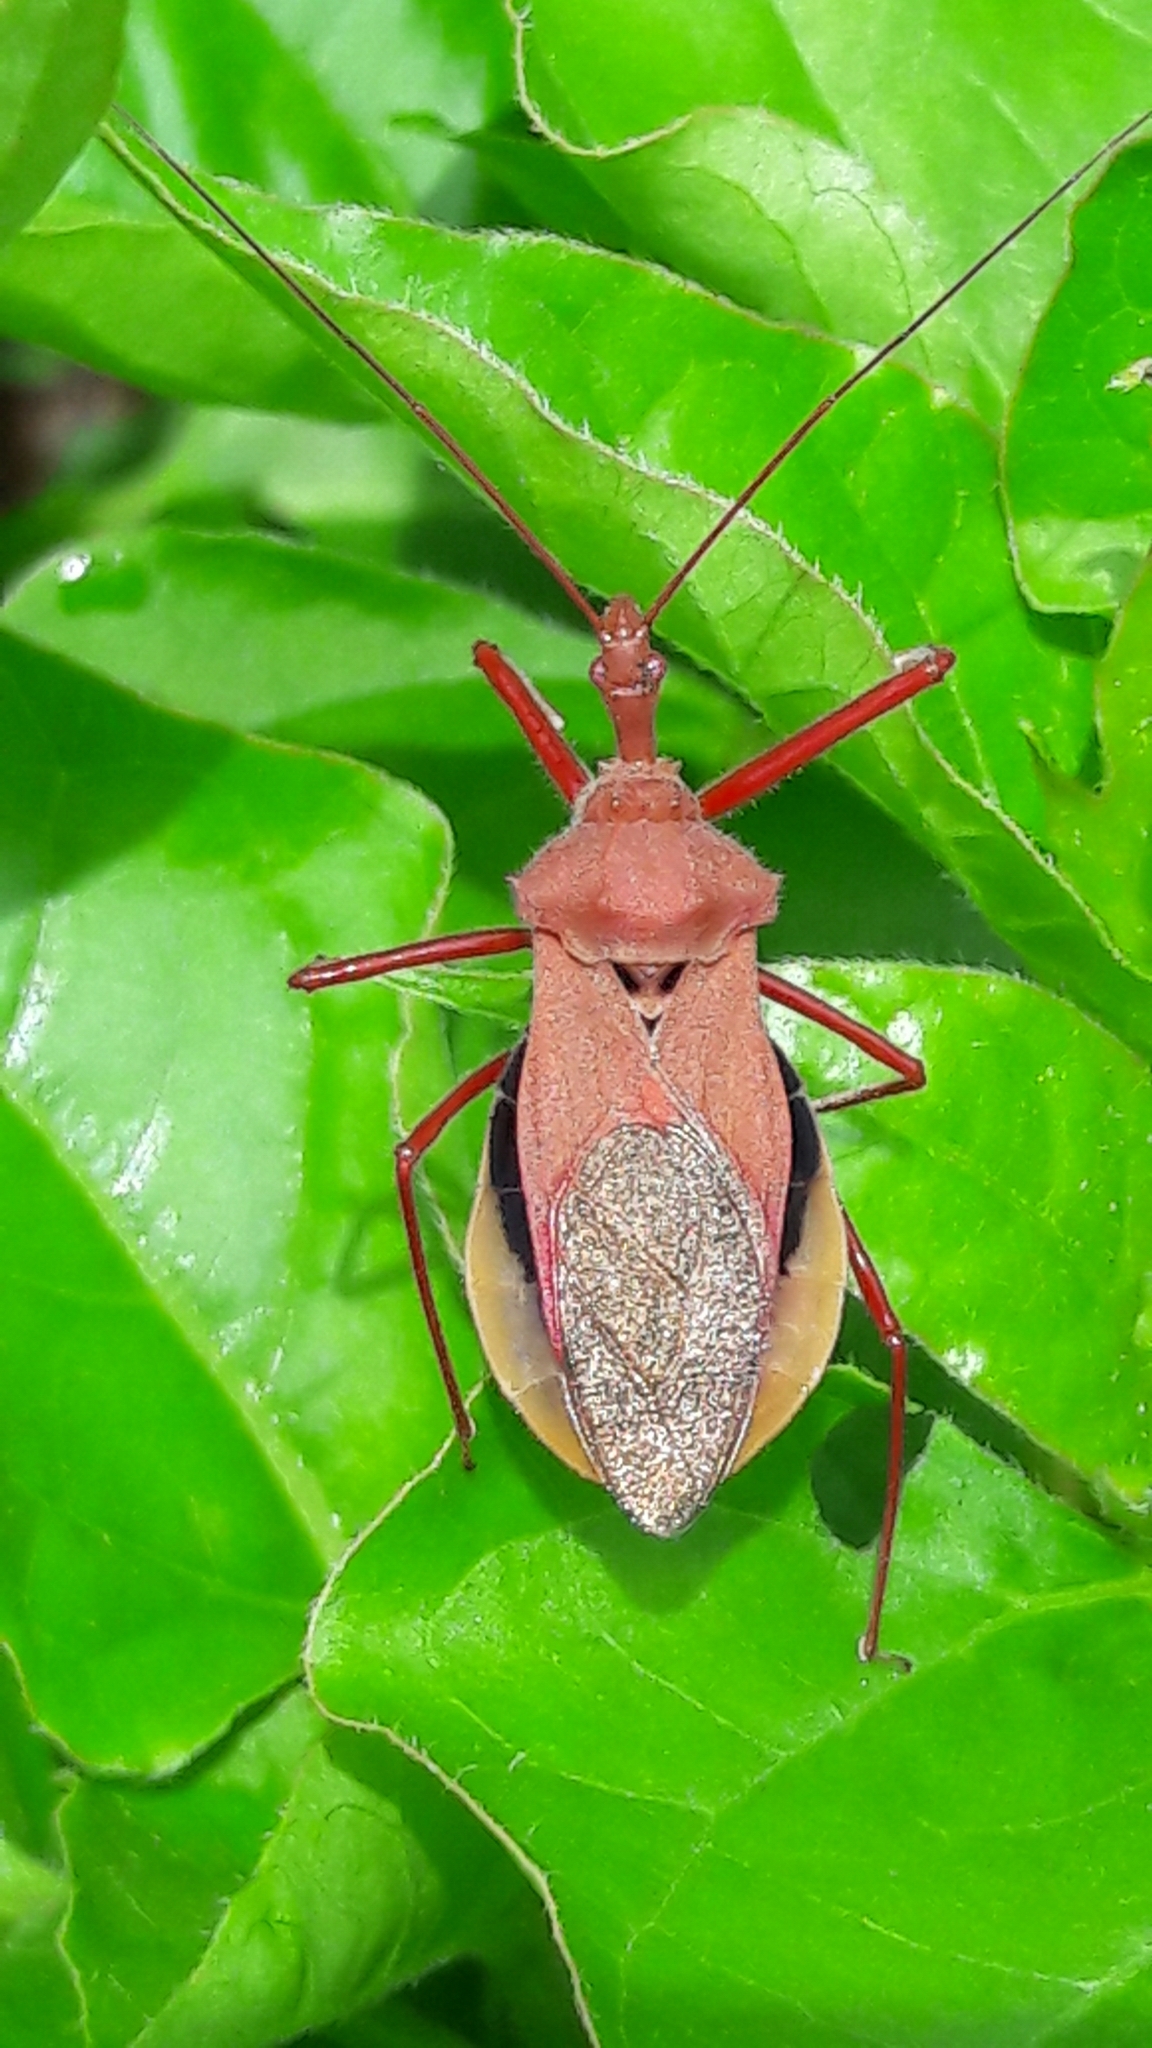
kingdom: Animalia
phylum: Arthropoda
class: Insecta
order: Hemiptera
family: Reduviidae
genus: Montina
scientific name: Montina confusa
